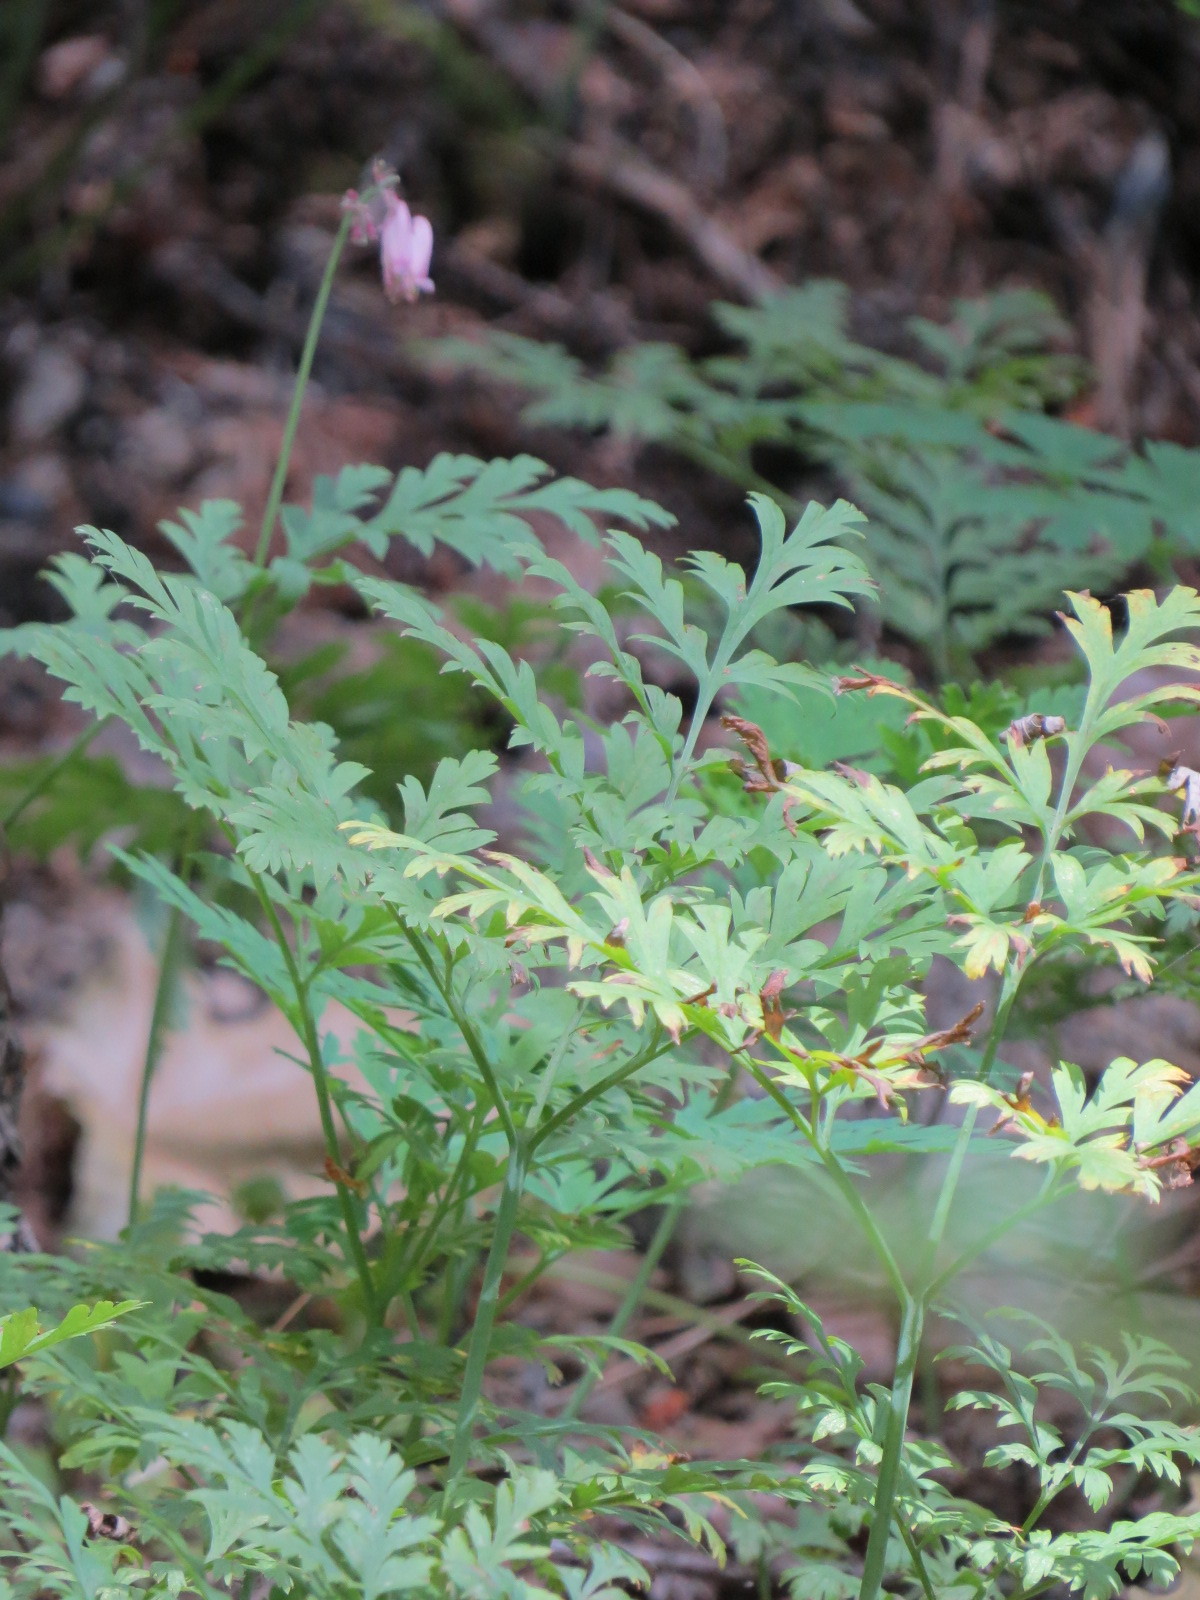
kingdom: Plantae
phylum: Tracheophyta
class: Magnoliopsida
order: Ranunculales
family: Papaveraceae
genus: Dicentra
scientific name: Dicentra formosa
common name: Bleeding-heart
